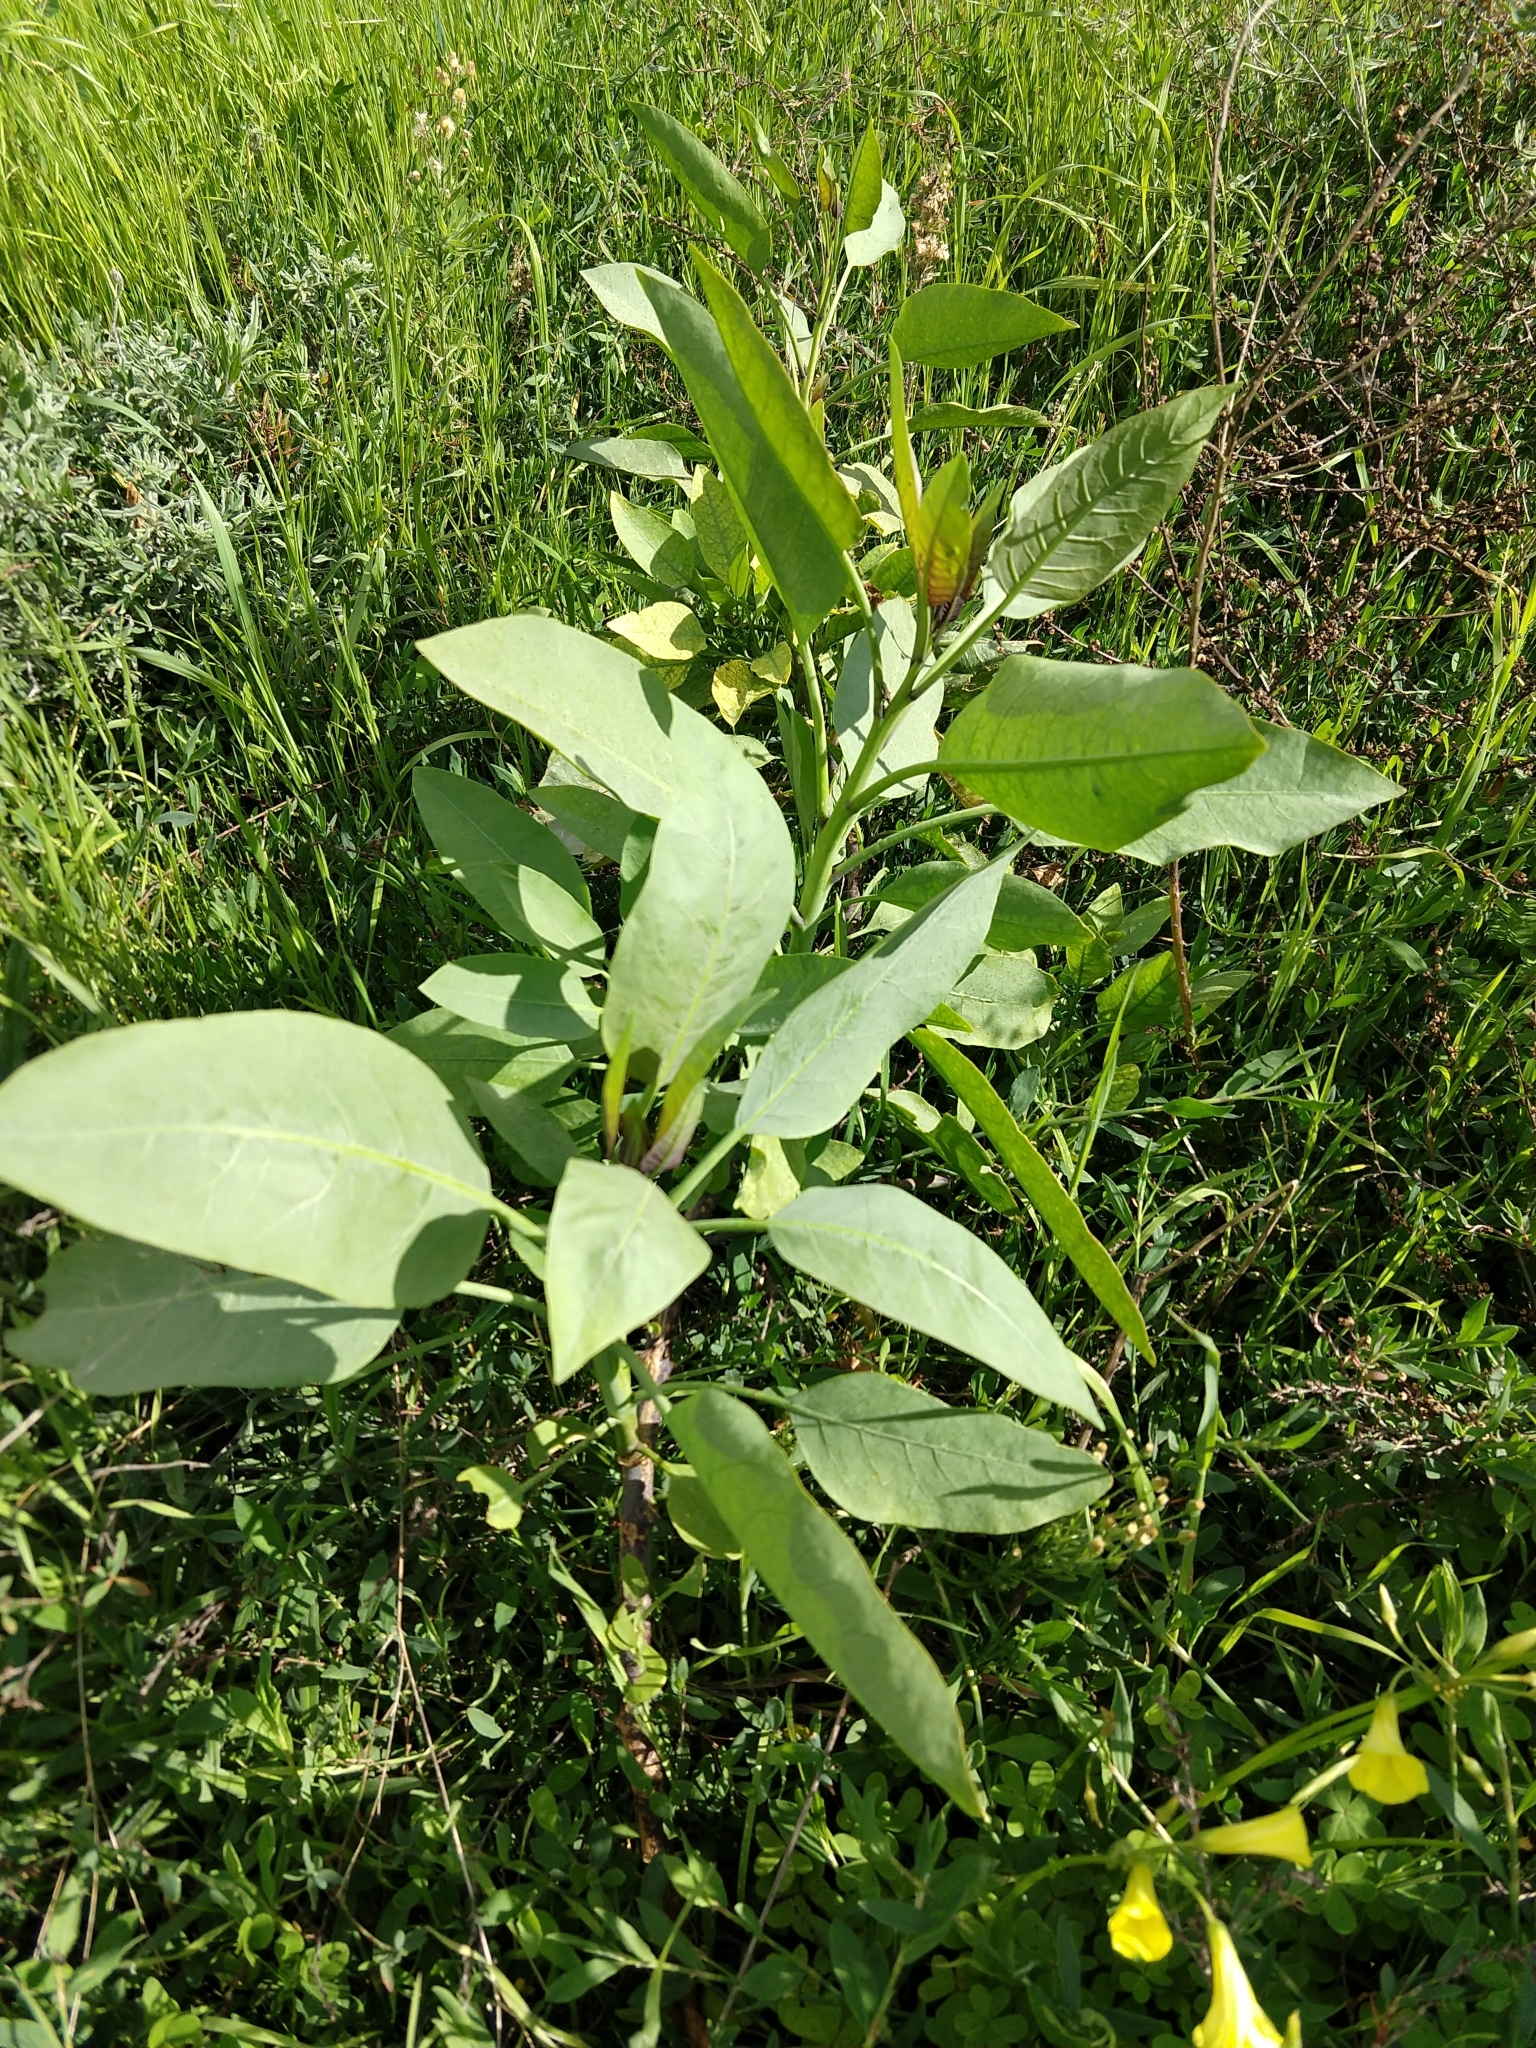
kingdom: Plantae
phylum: Tracheophyta
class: Magnoliopsida
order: Solanales
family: Solanaceae
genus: Nicotiana
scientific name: Nicotiana glauca
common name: Tree tobacco
